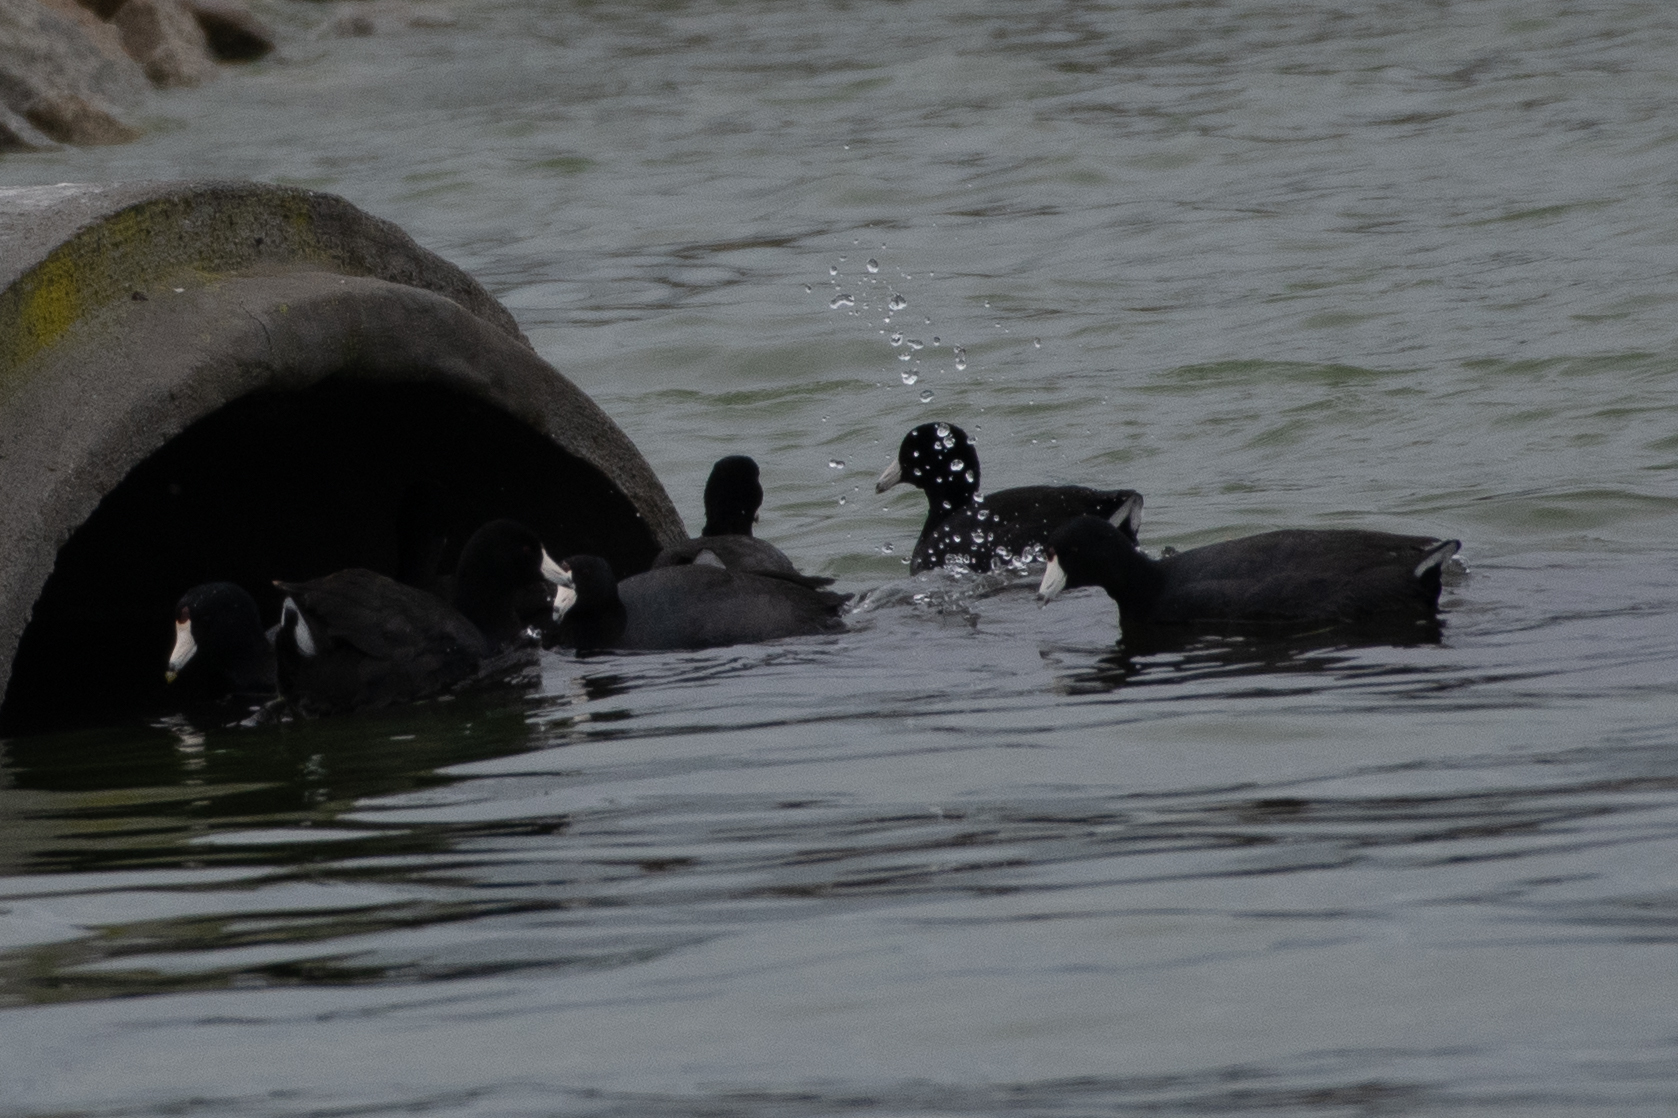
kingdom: Animalia
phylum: Chordata
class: Aves
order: Gruiformes
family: Rallidae
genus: Fulica
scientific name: Fulica americana
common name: American coot
